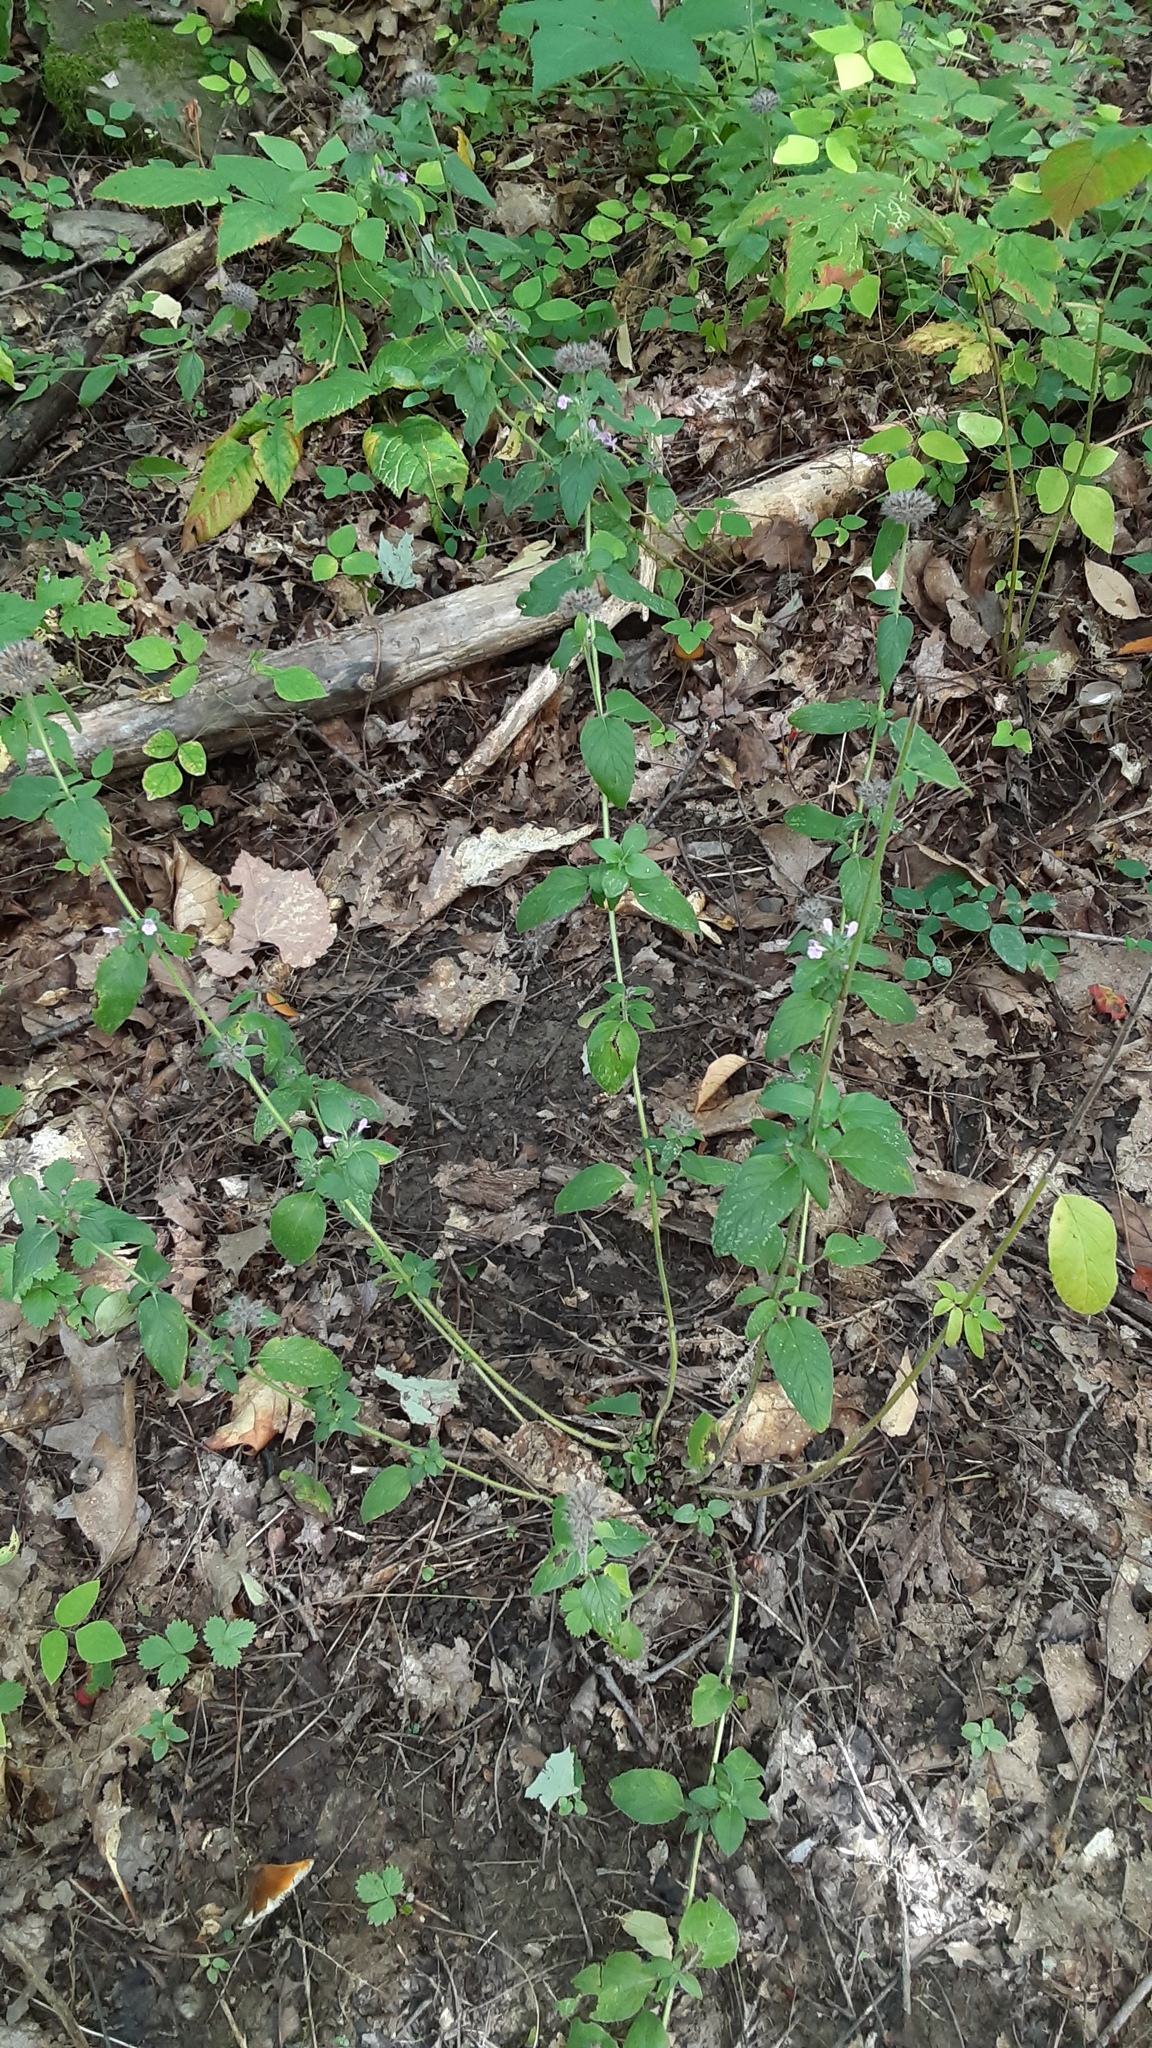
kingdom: Plantae
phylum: Tracheophyta
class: Magnoliopsida
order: Lamiales
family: Lamiaceae
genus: Clinopodium
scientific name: Clinopodium vulgare
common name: Wild basil
